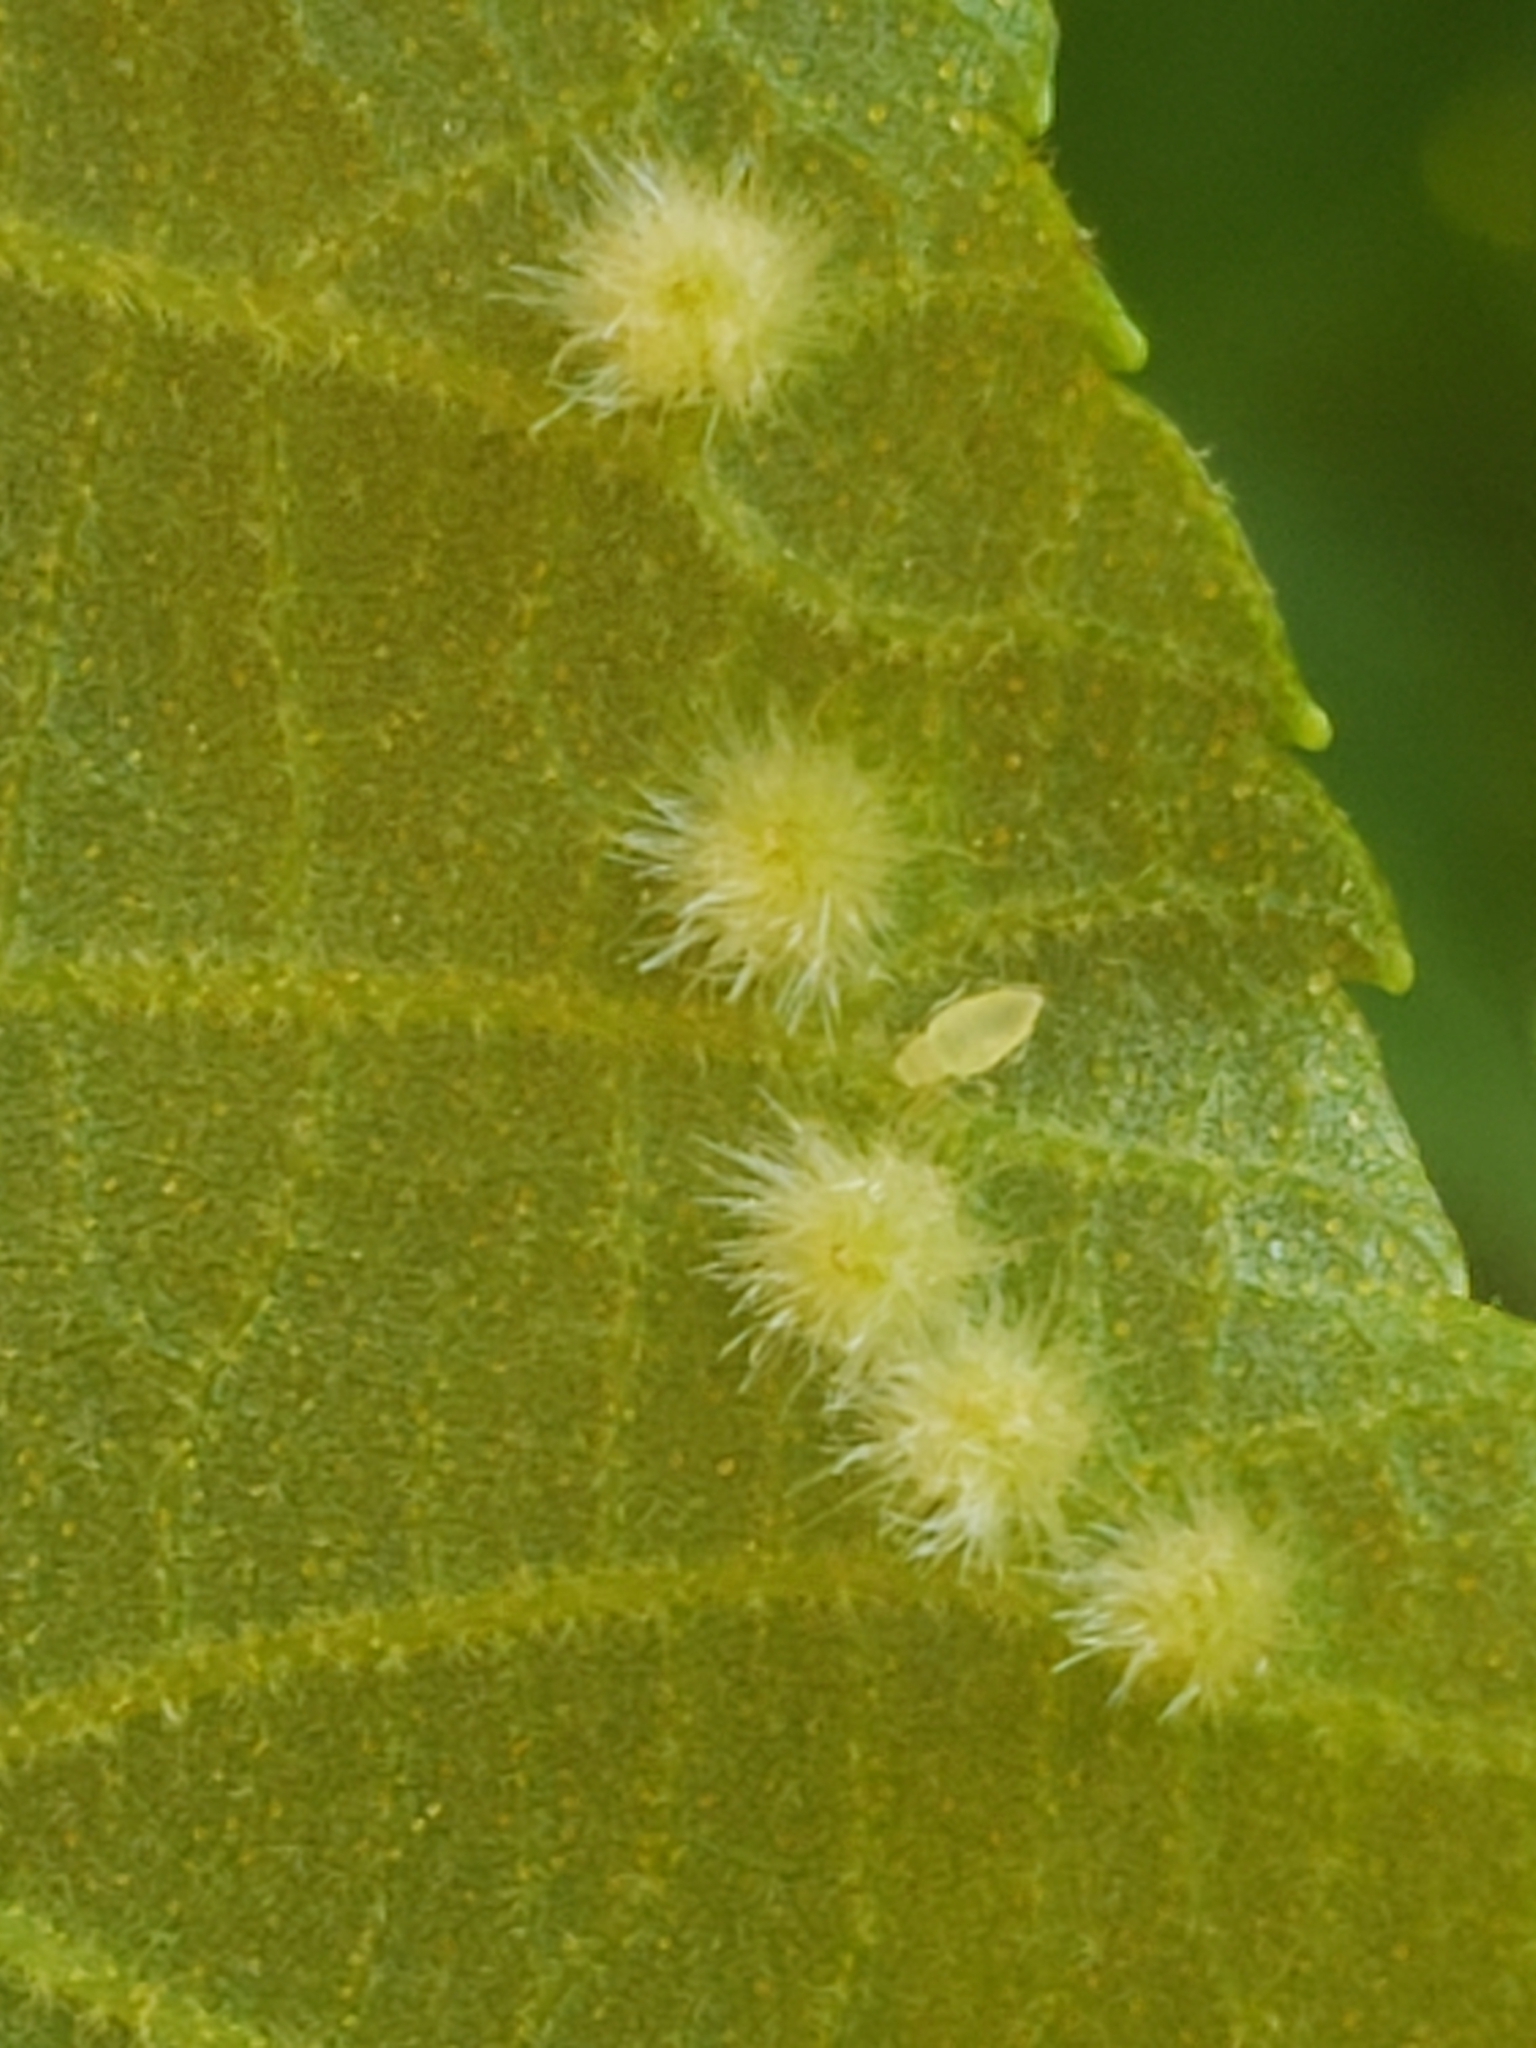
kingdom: Animalia
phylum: Arthropoda
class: Insecta
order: Diptera
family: Cecidomyiidae
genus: Caryomyia
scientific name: Caryomyia albipilosa
